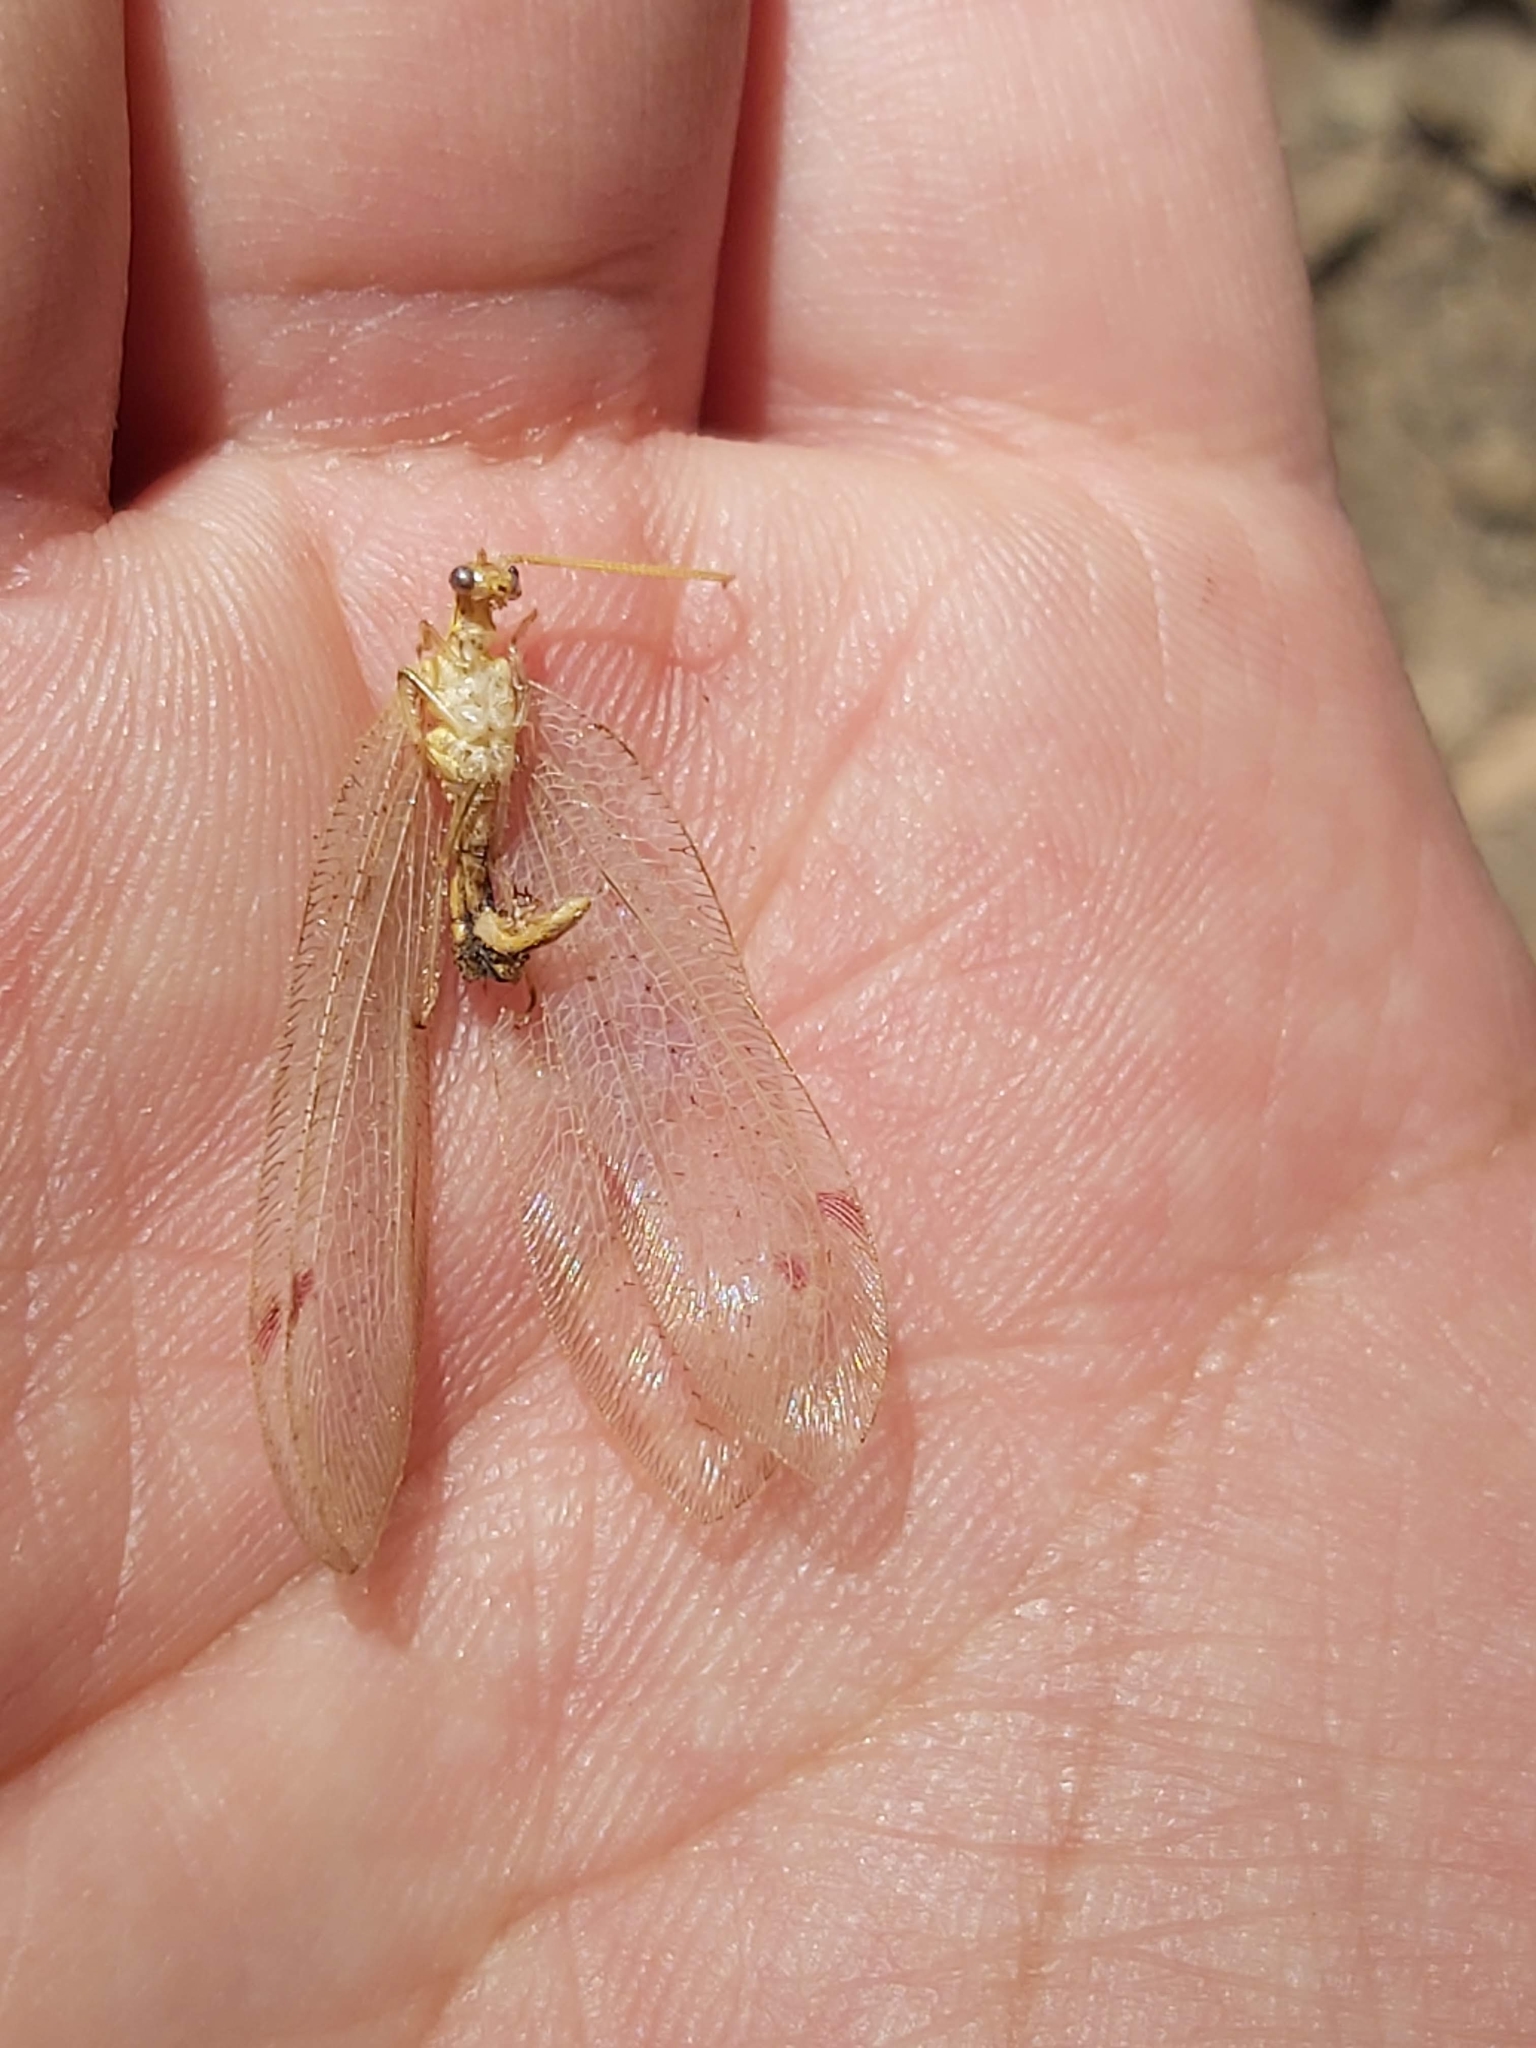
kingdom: Animalia
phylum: Arthropoda
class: Insecta
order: Neuroptera
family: Nymphidae
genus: Norfolius
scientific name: Norfolius howensis
